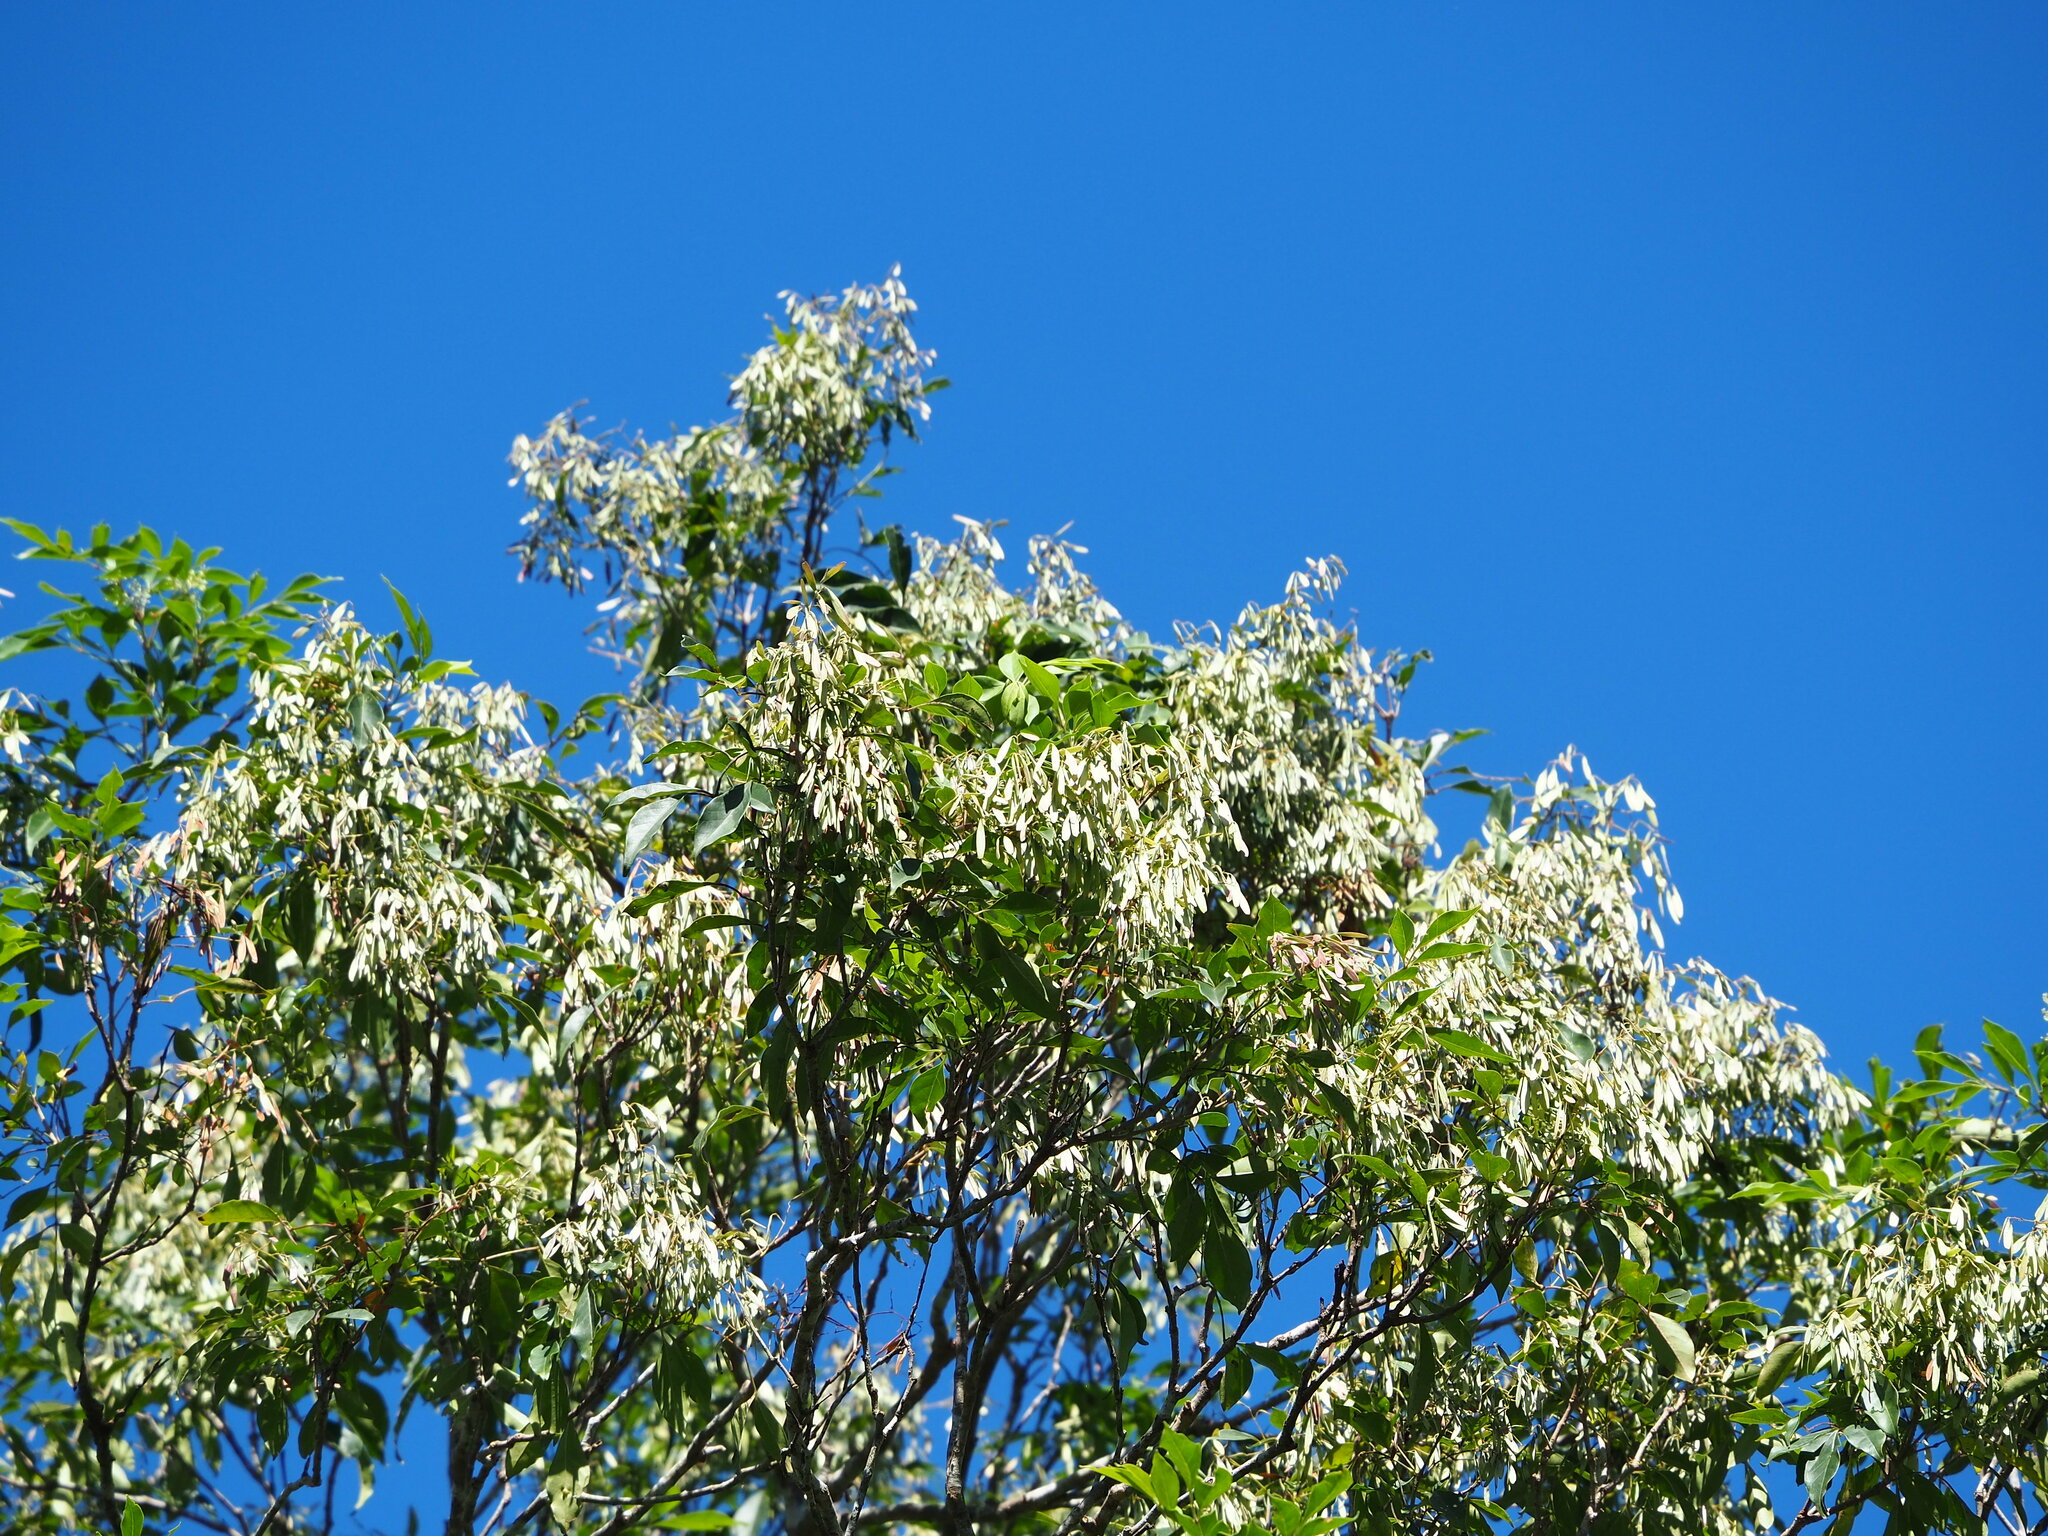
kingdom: Plantae
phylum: Tracheophyta
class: Magnoliopsida
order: Lamiales
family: Oleaceae
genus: Fraxinus
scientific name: Fraxinus griffithii
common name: Himalayan ash
